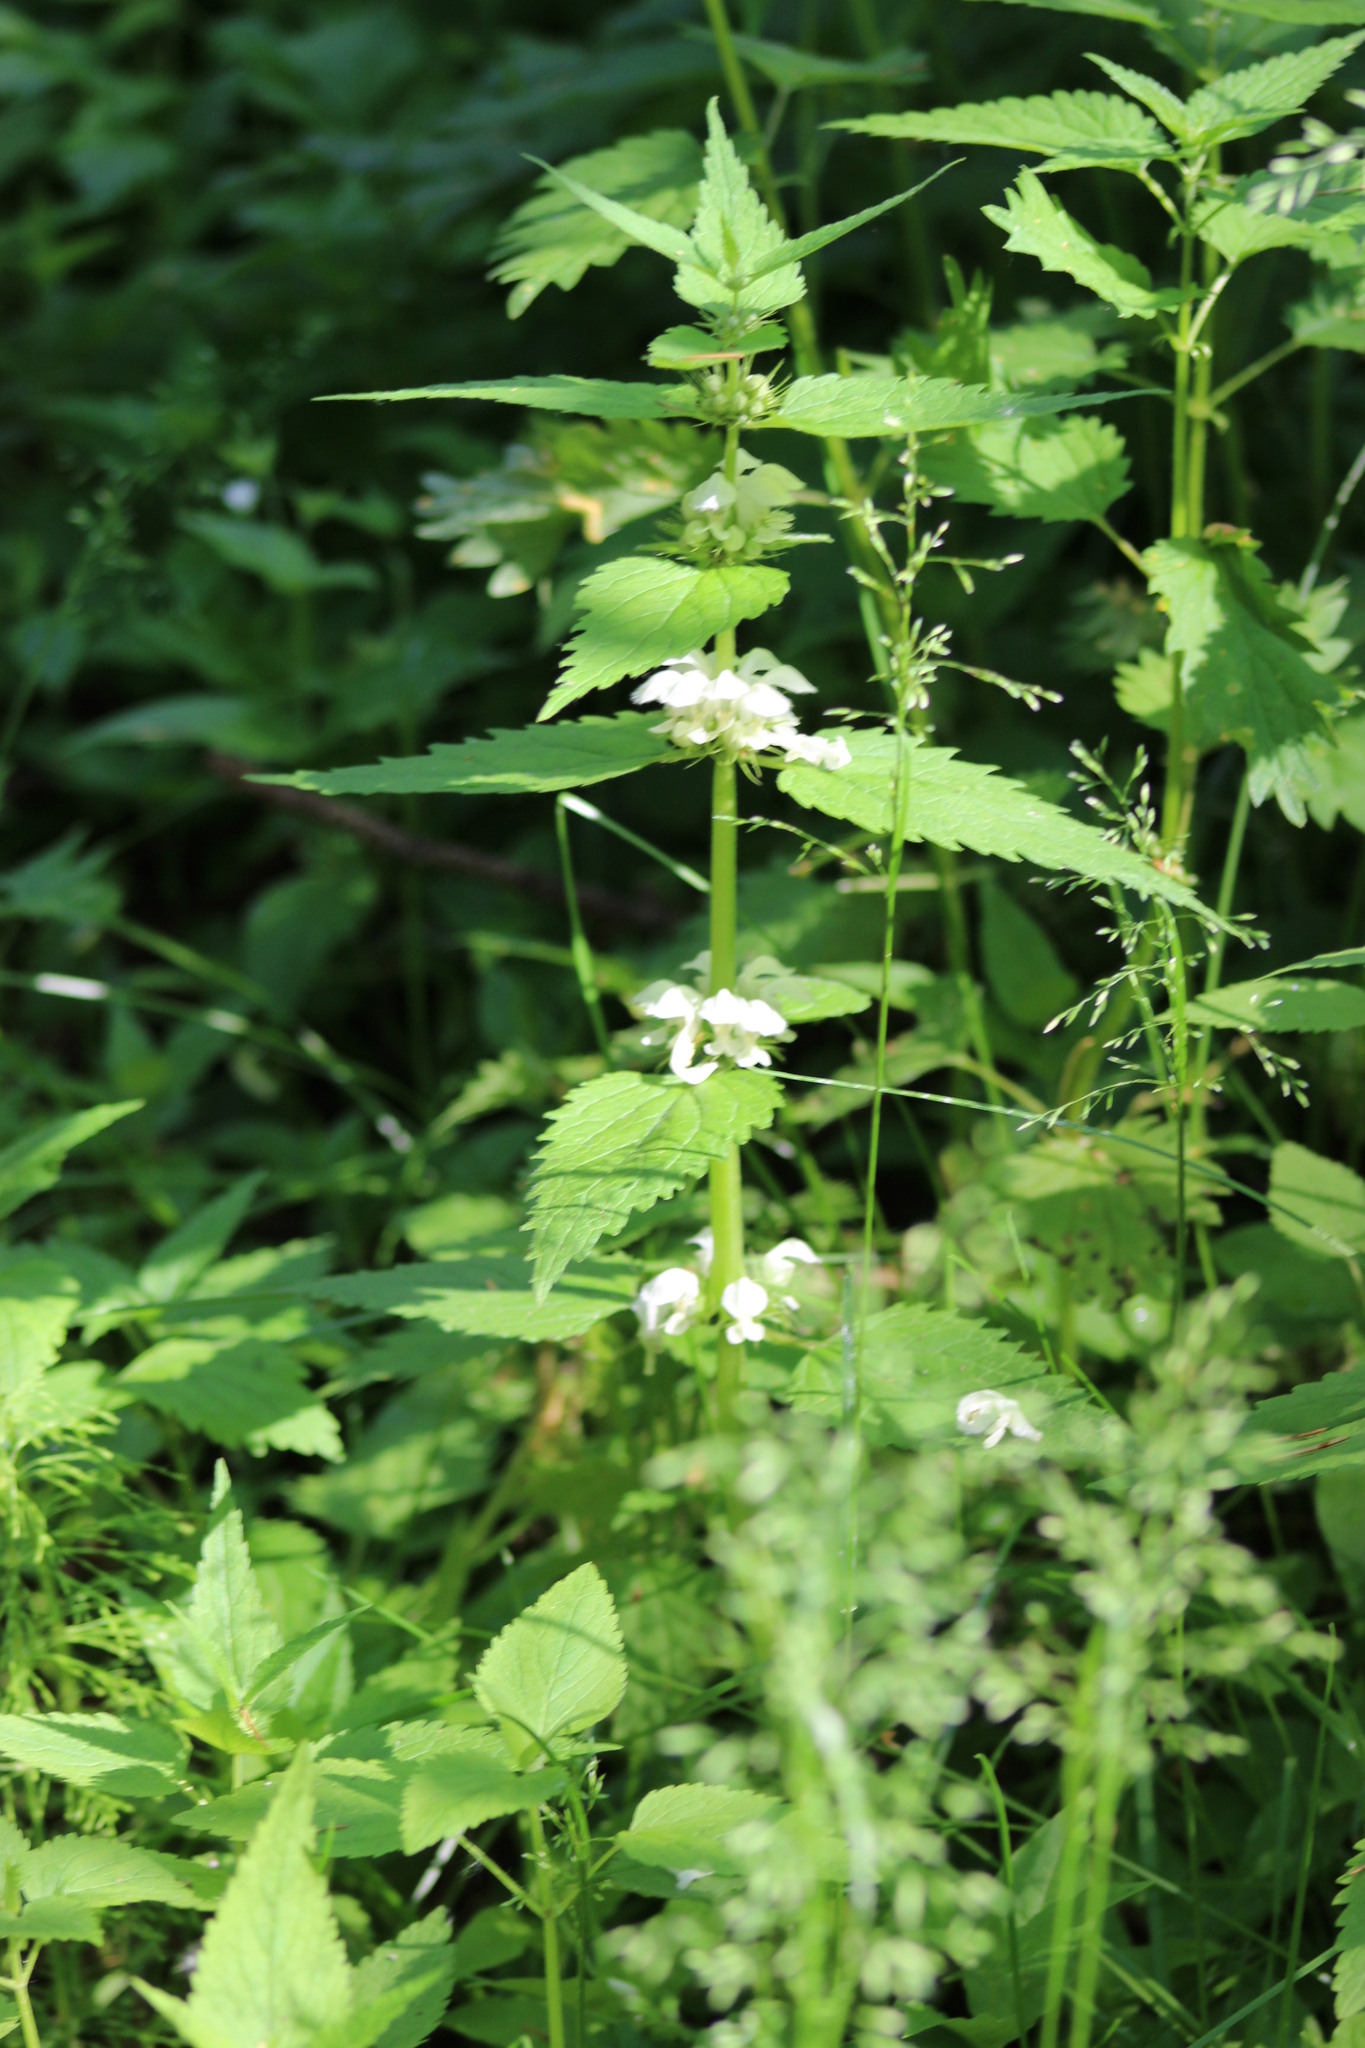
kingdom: Plantae
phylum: Tracheophyta
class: Magnoliopsida
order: Lamiales
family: Lamiaceae
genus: Lamium
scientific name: Lamium album
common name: White dead-nettle
